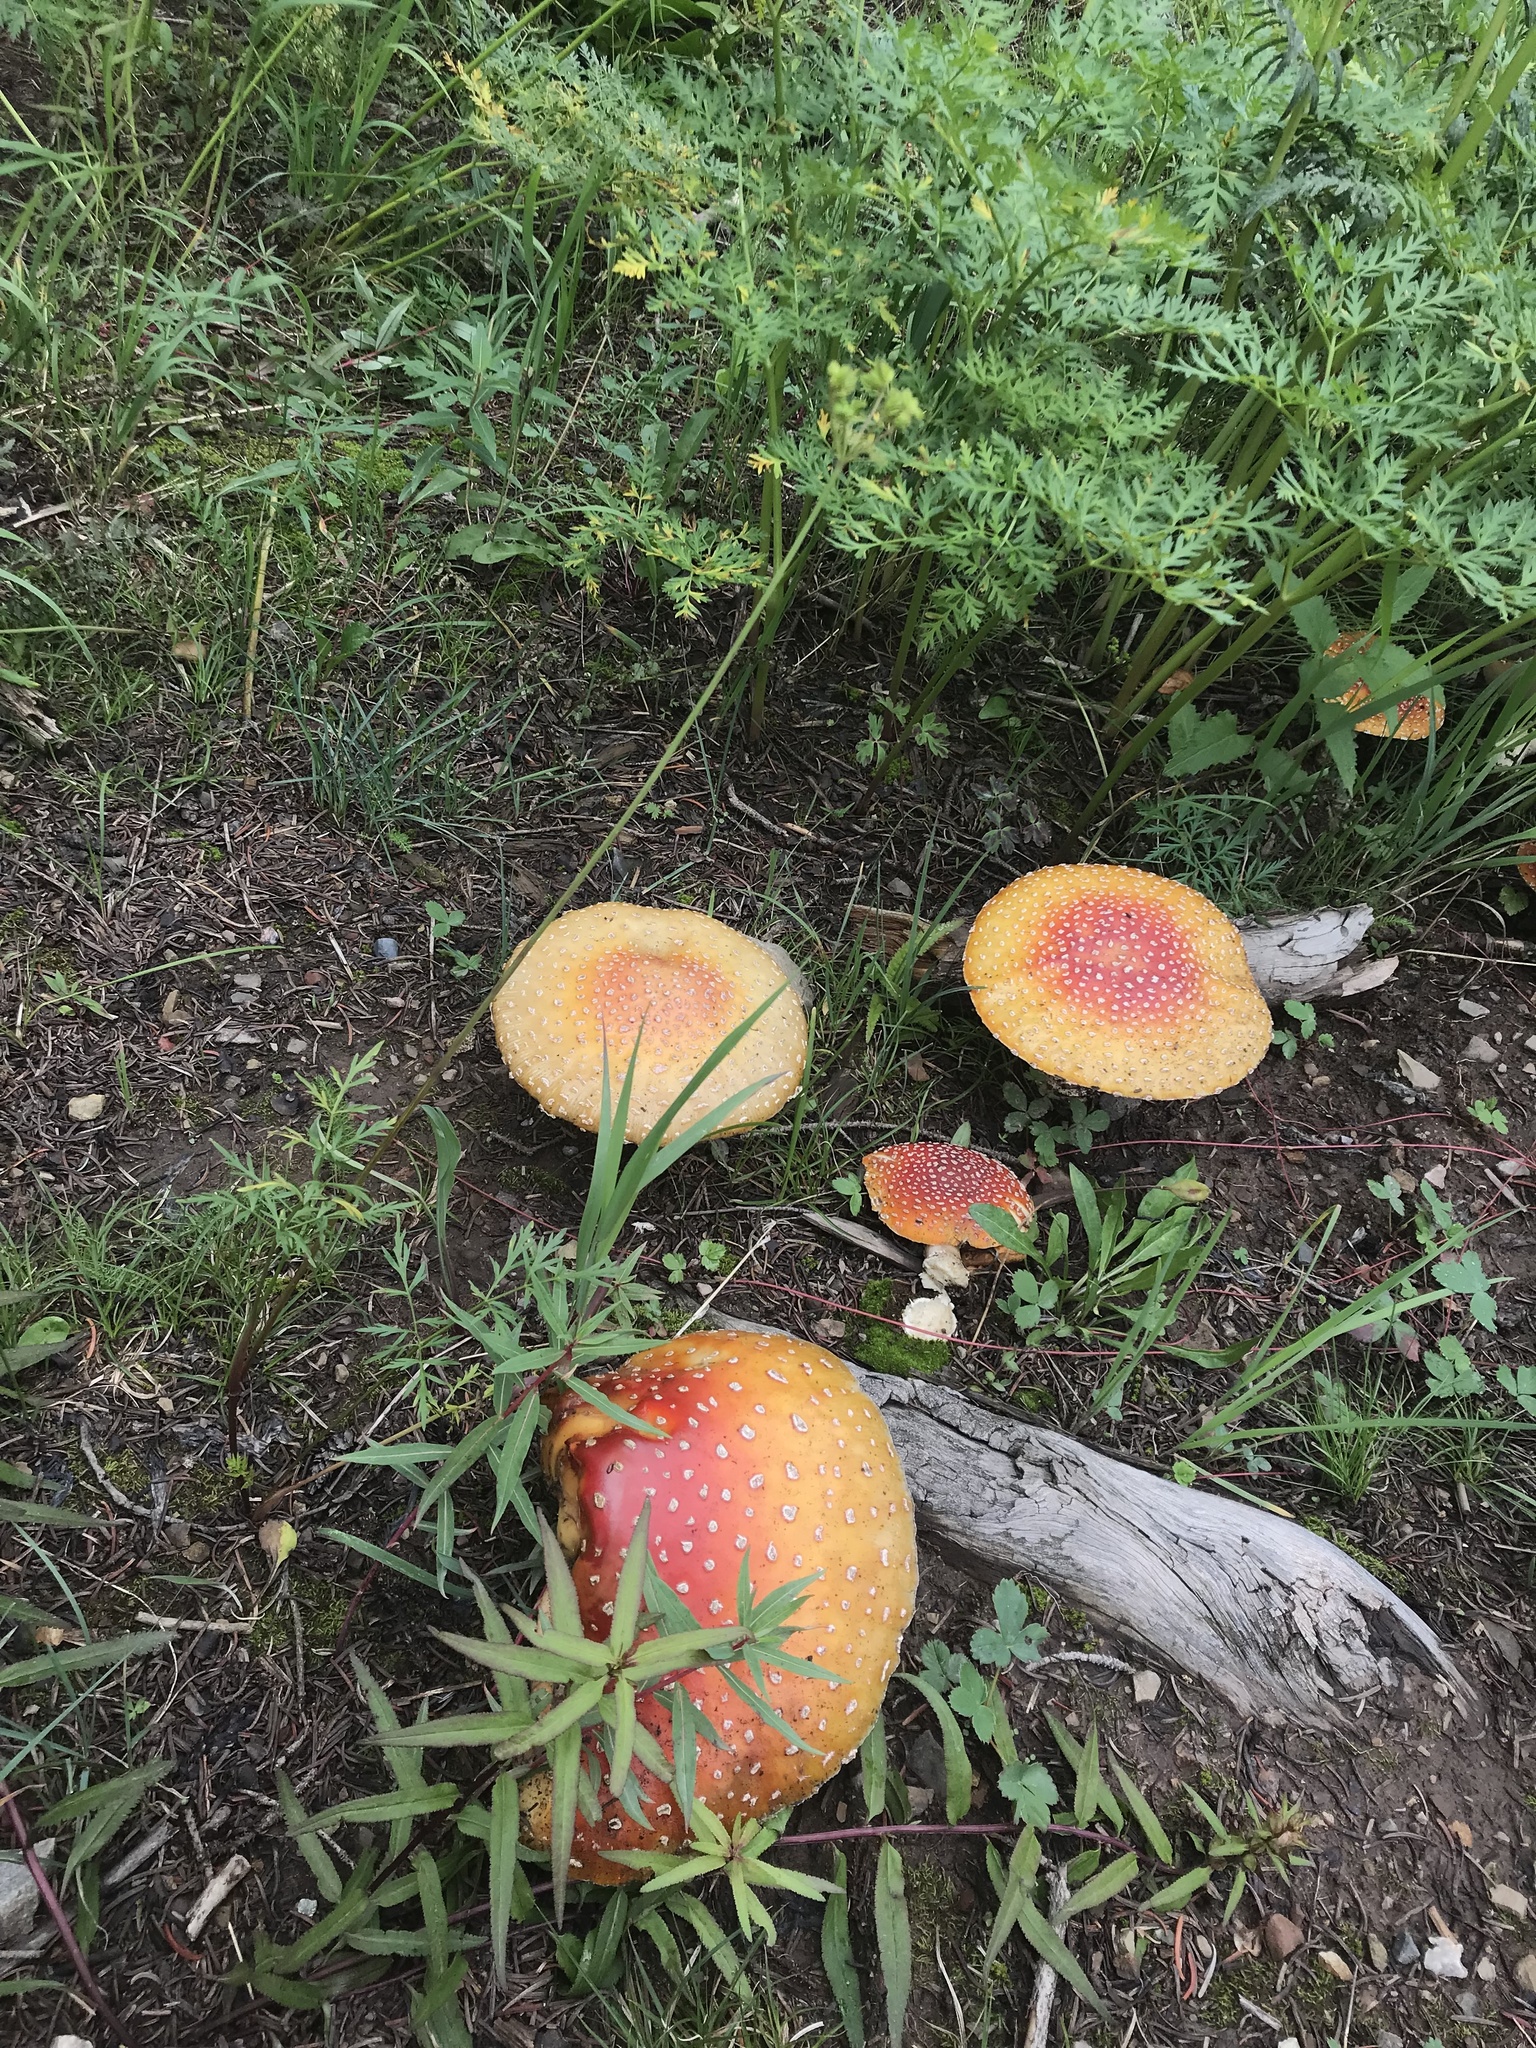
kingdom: Fungi
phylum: Basidiomycota
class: Agaricomycetes
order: Agaricales
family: Amanitaceae
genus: Amanita
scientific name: Amanita muscaria
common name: Fly agaric
